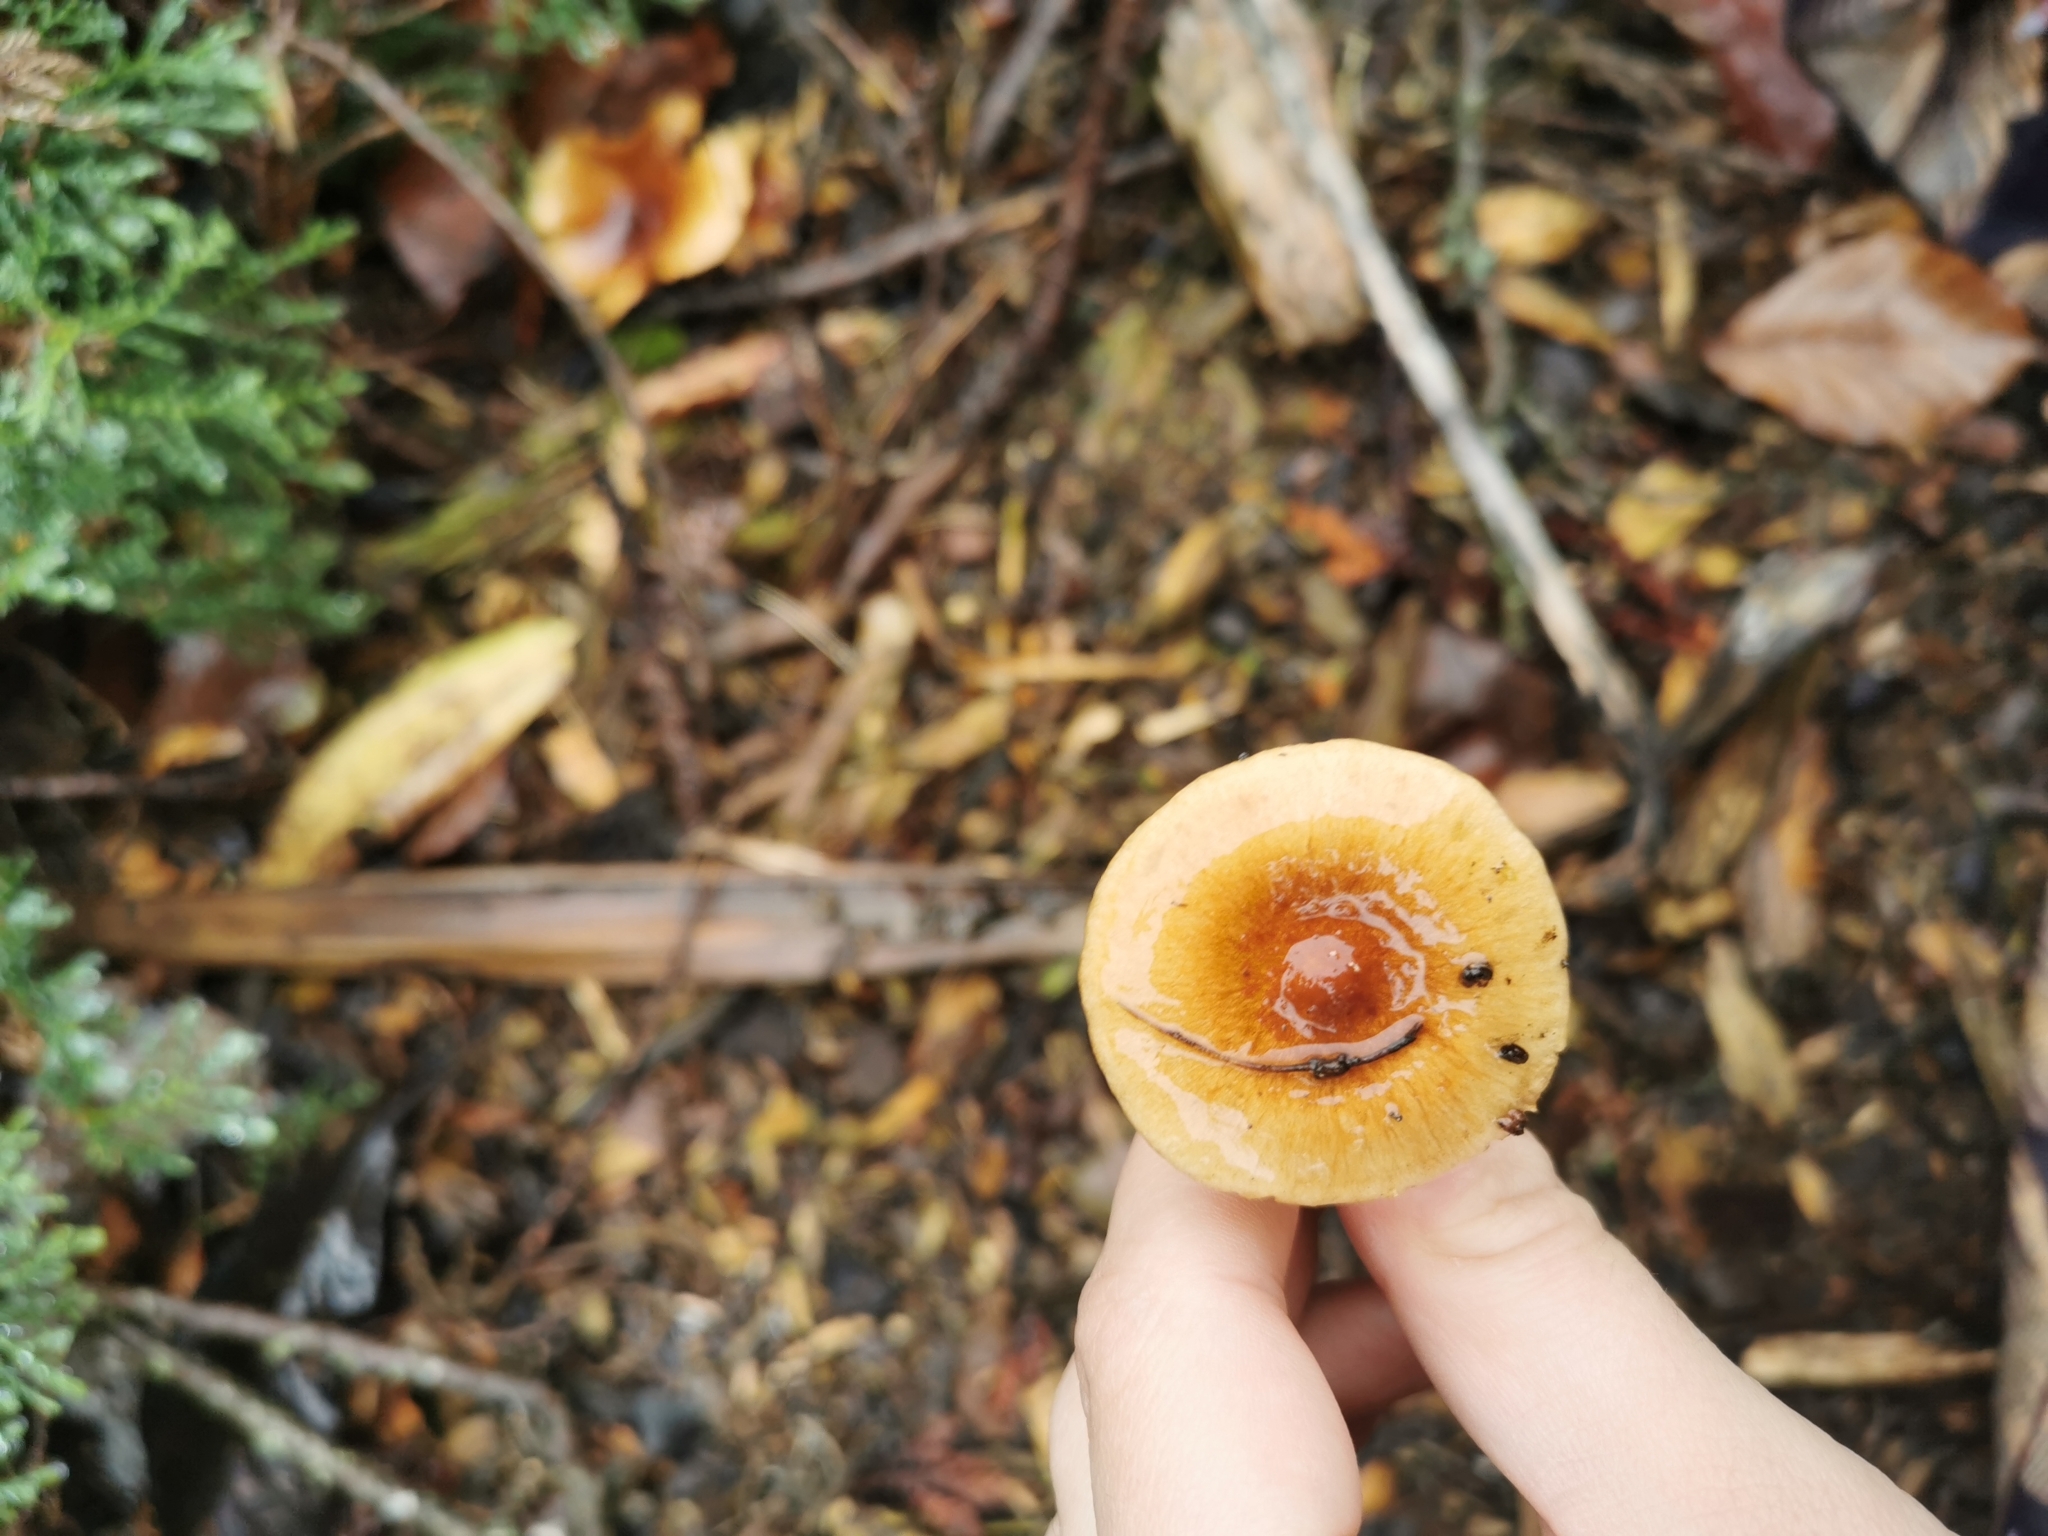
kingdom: Fungi
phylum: Basidiomycota
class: Agaricomycetes
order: Agaricales
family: Strophariaceae
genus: Pholiota
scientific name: Pholiota multicingulata
